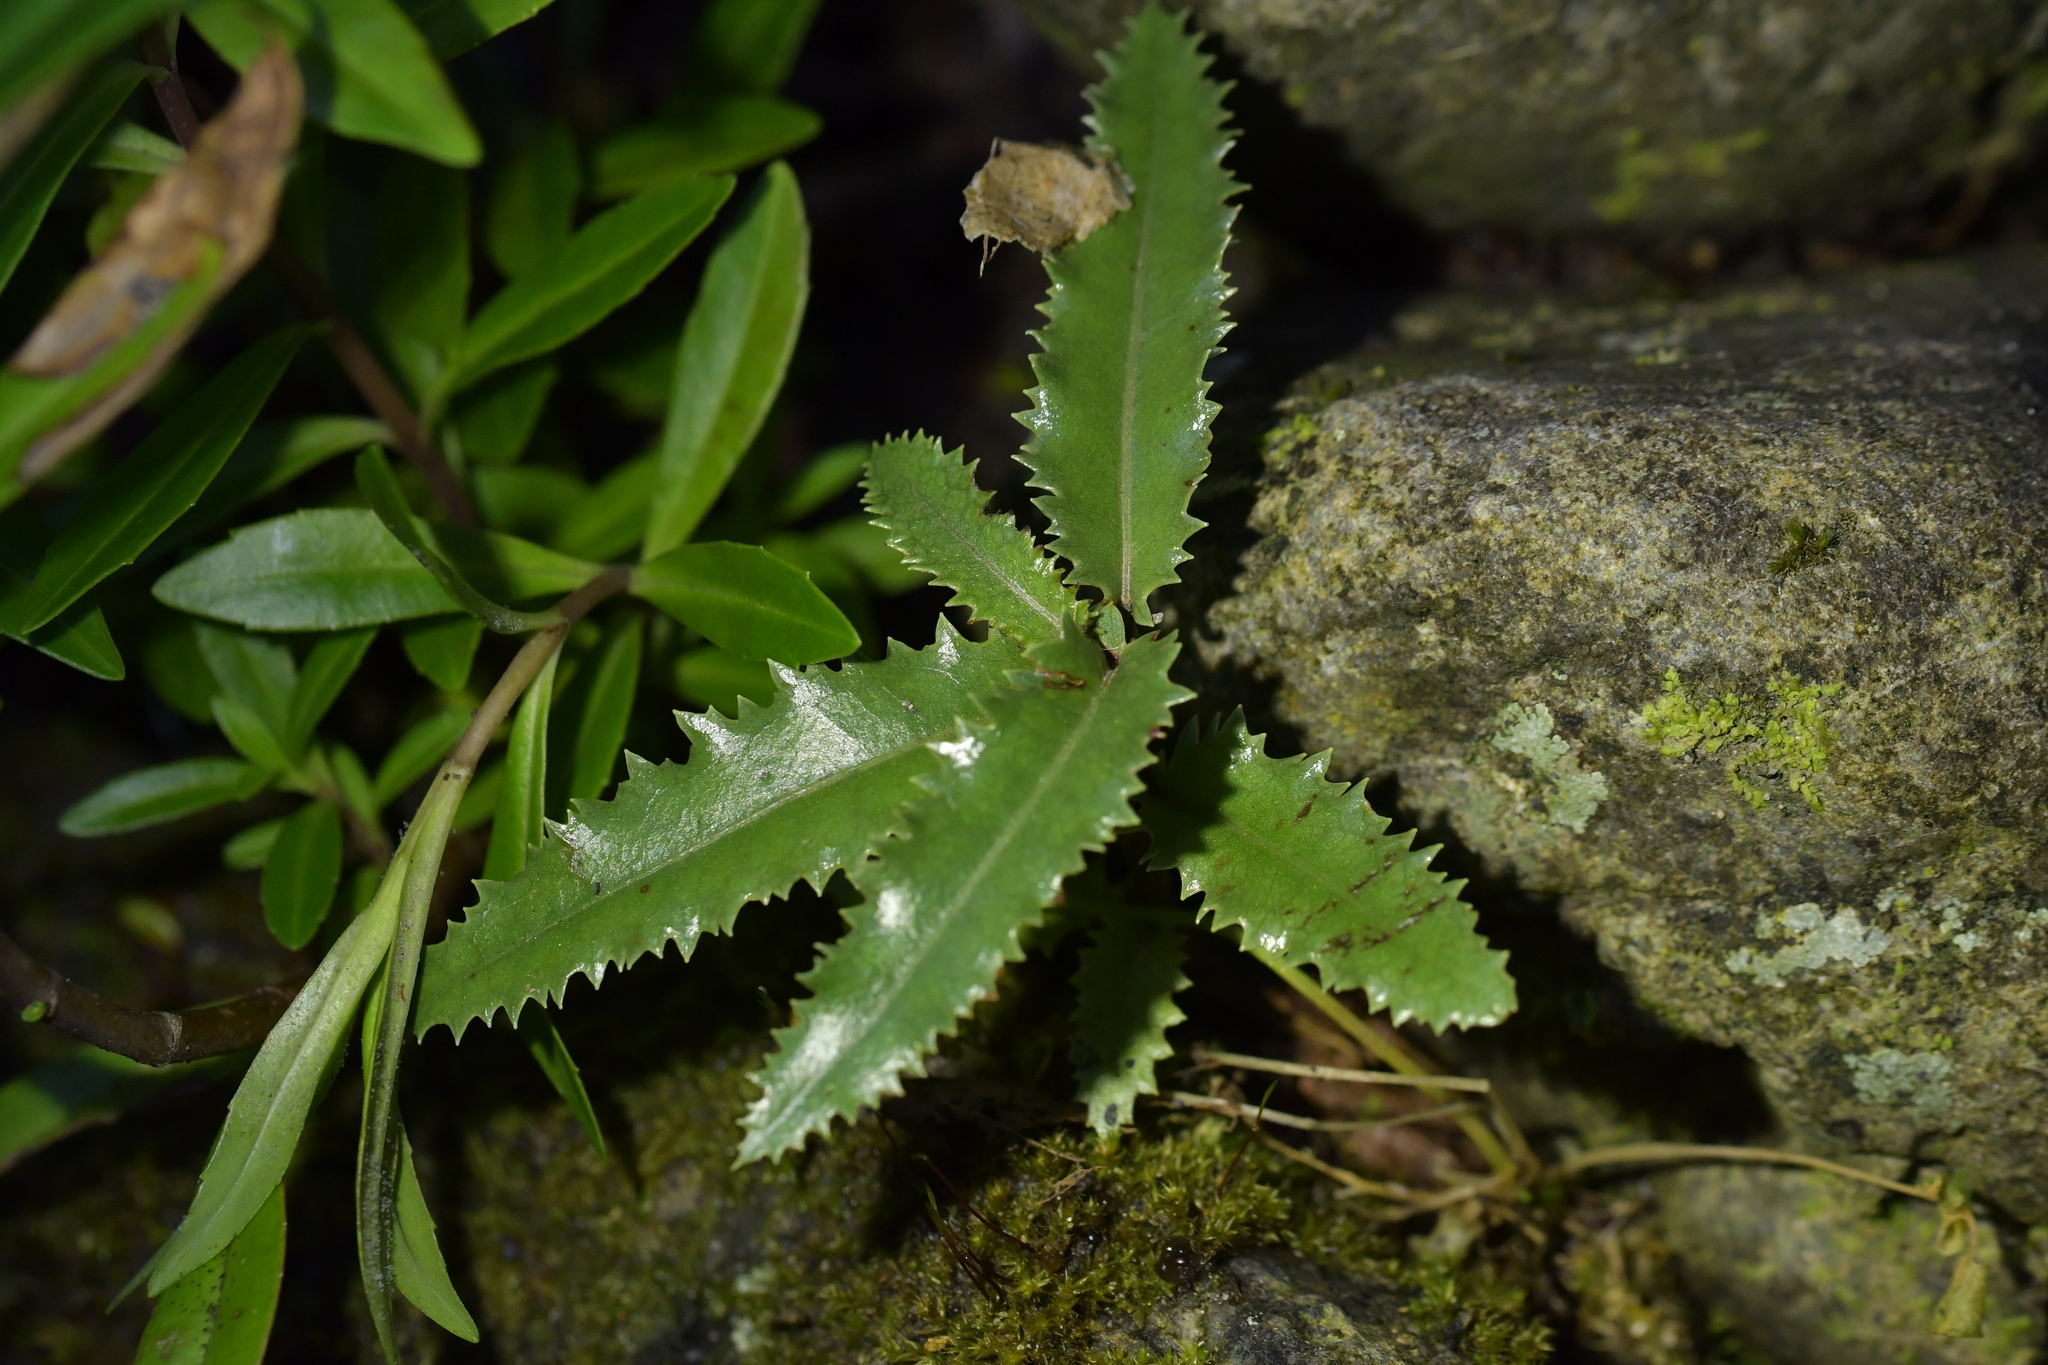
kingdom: Plantae
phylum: Tracheophyta
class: Magnoliopsida
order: Asterales
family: Asteraceae
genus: Olearia
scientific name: Olearia ilicifolia
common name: Maori-holly
